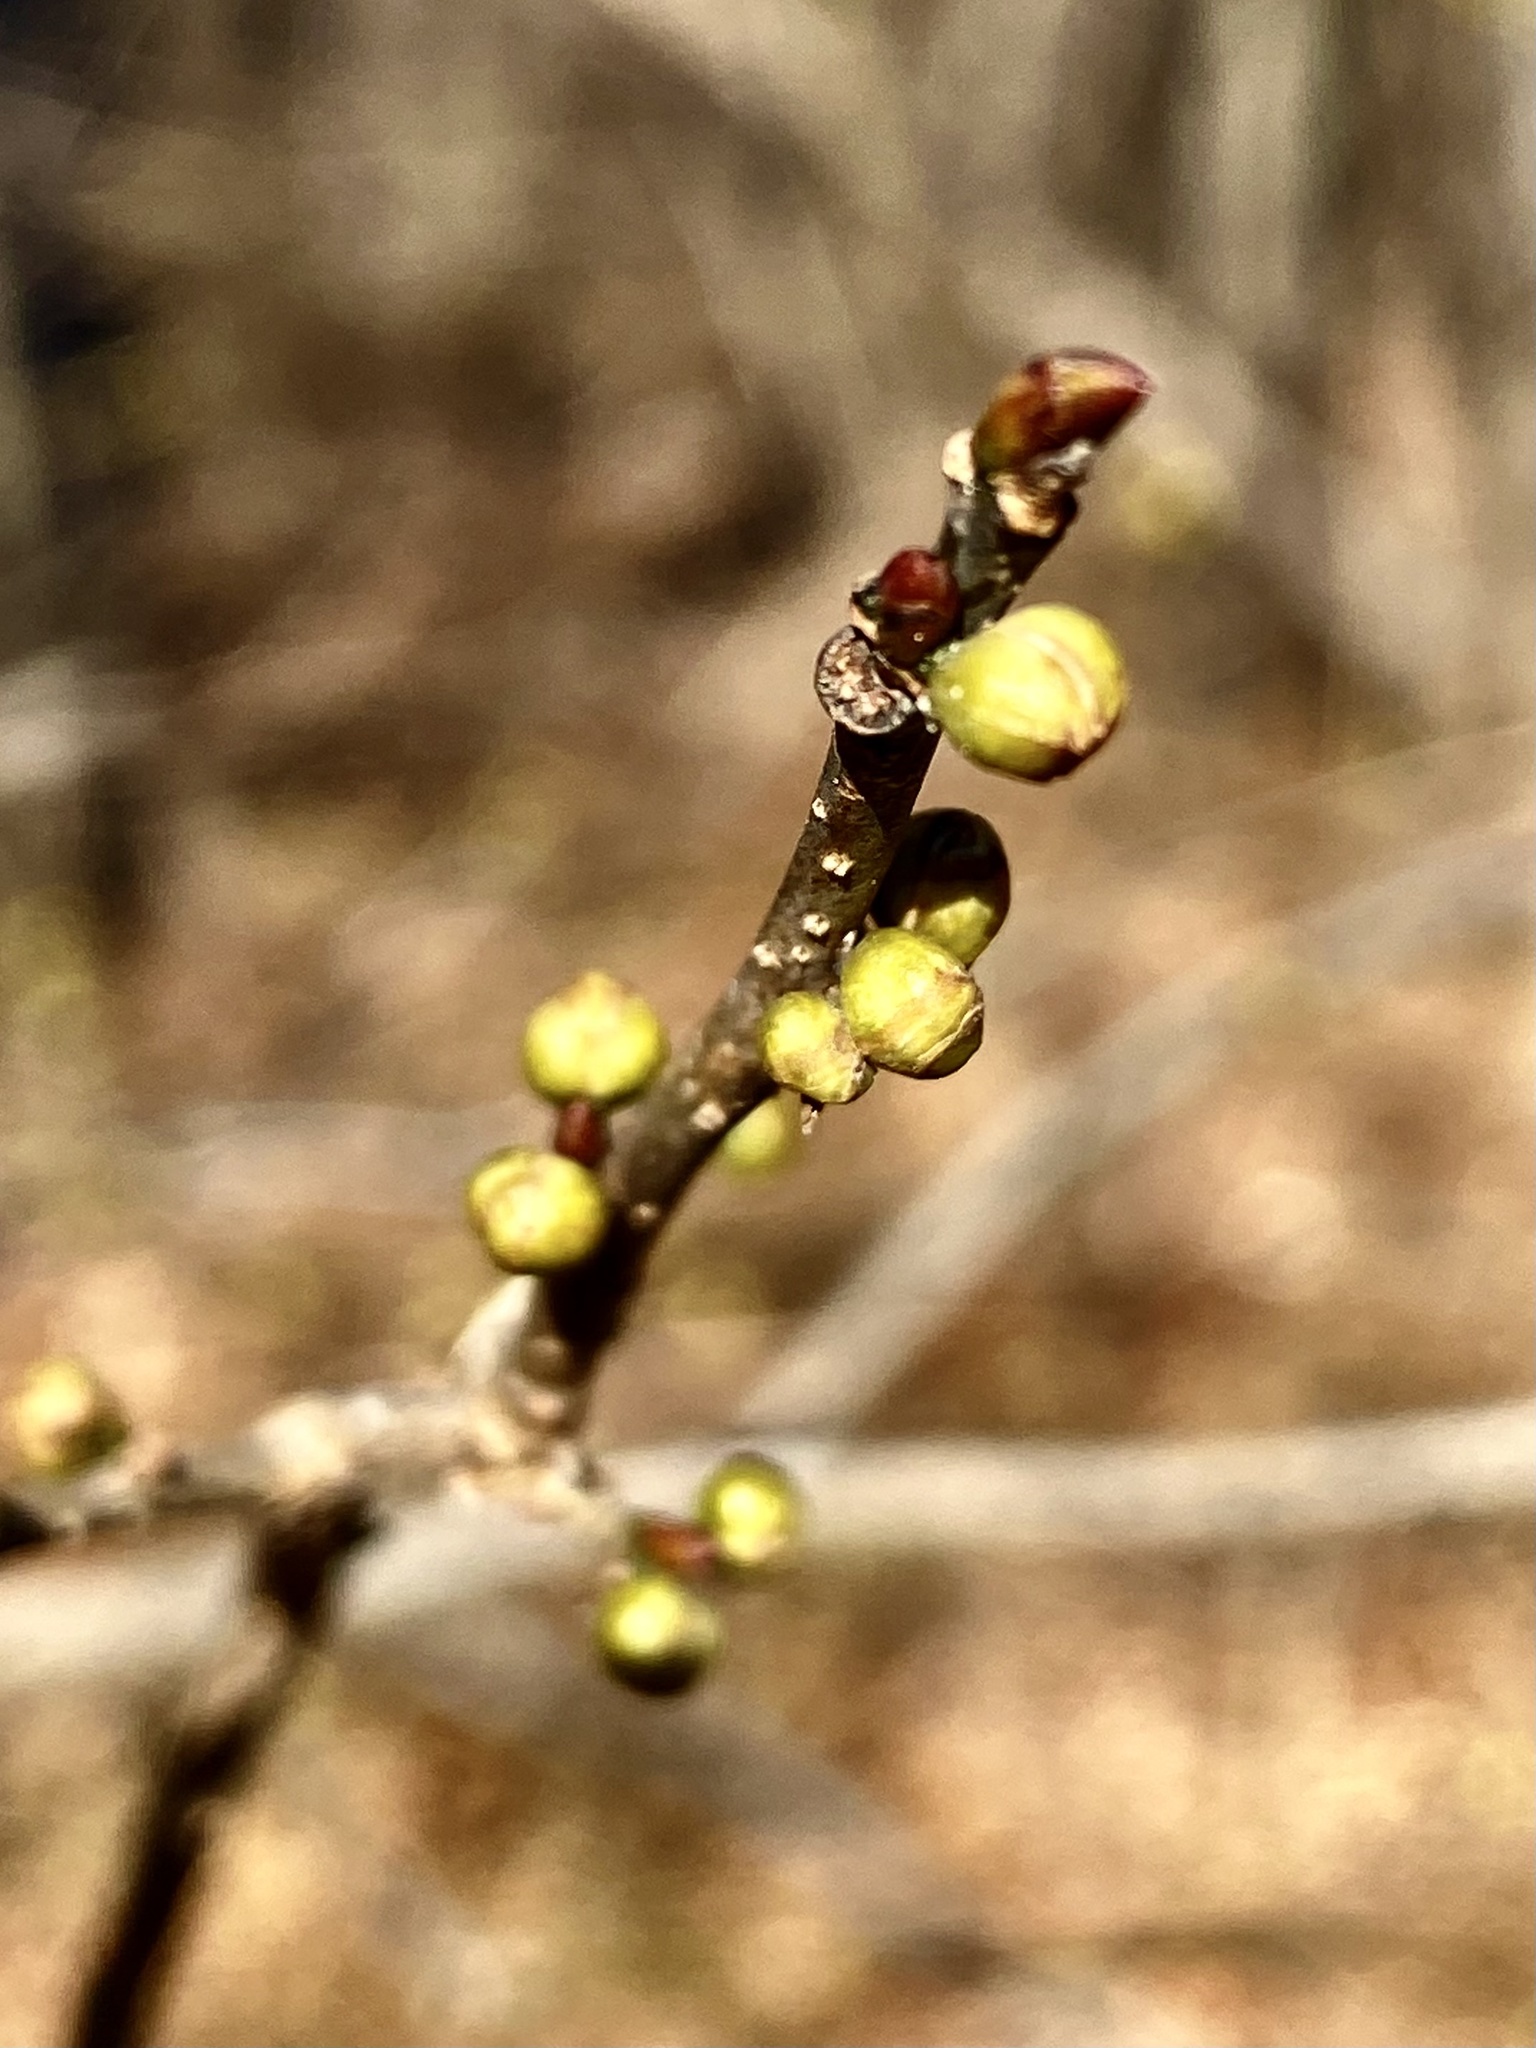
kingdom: Plantae
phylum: Tracheophyta
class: Magnoliopsida
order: Laurales
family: Lauraceae
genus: Lindera
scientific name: Lindera benzoin
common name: Spicebush
